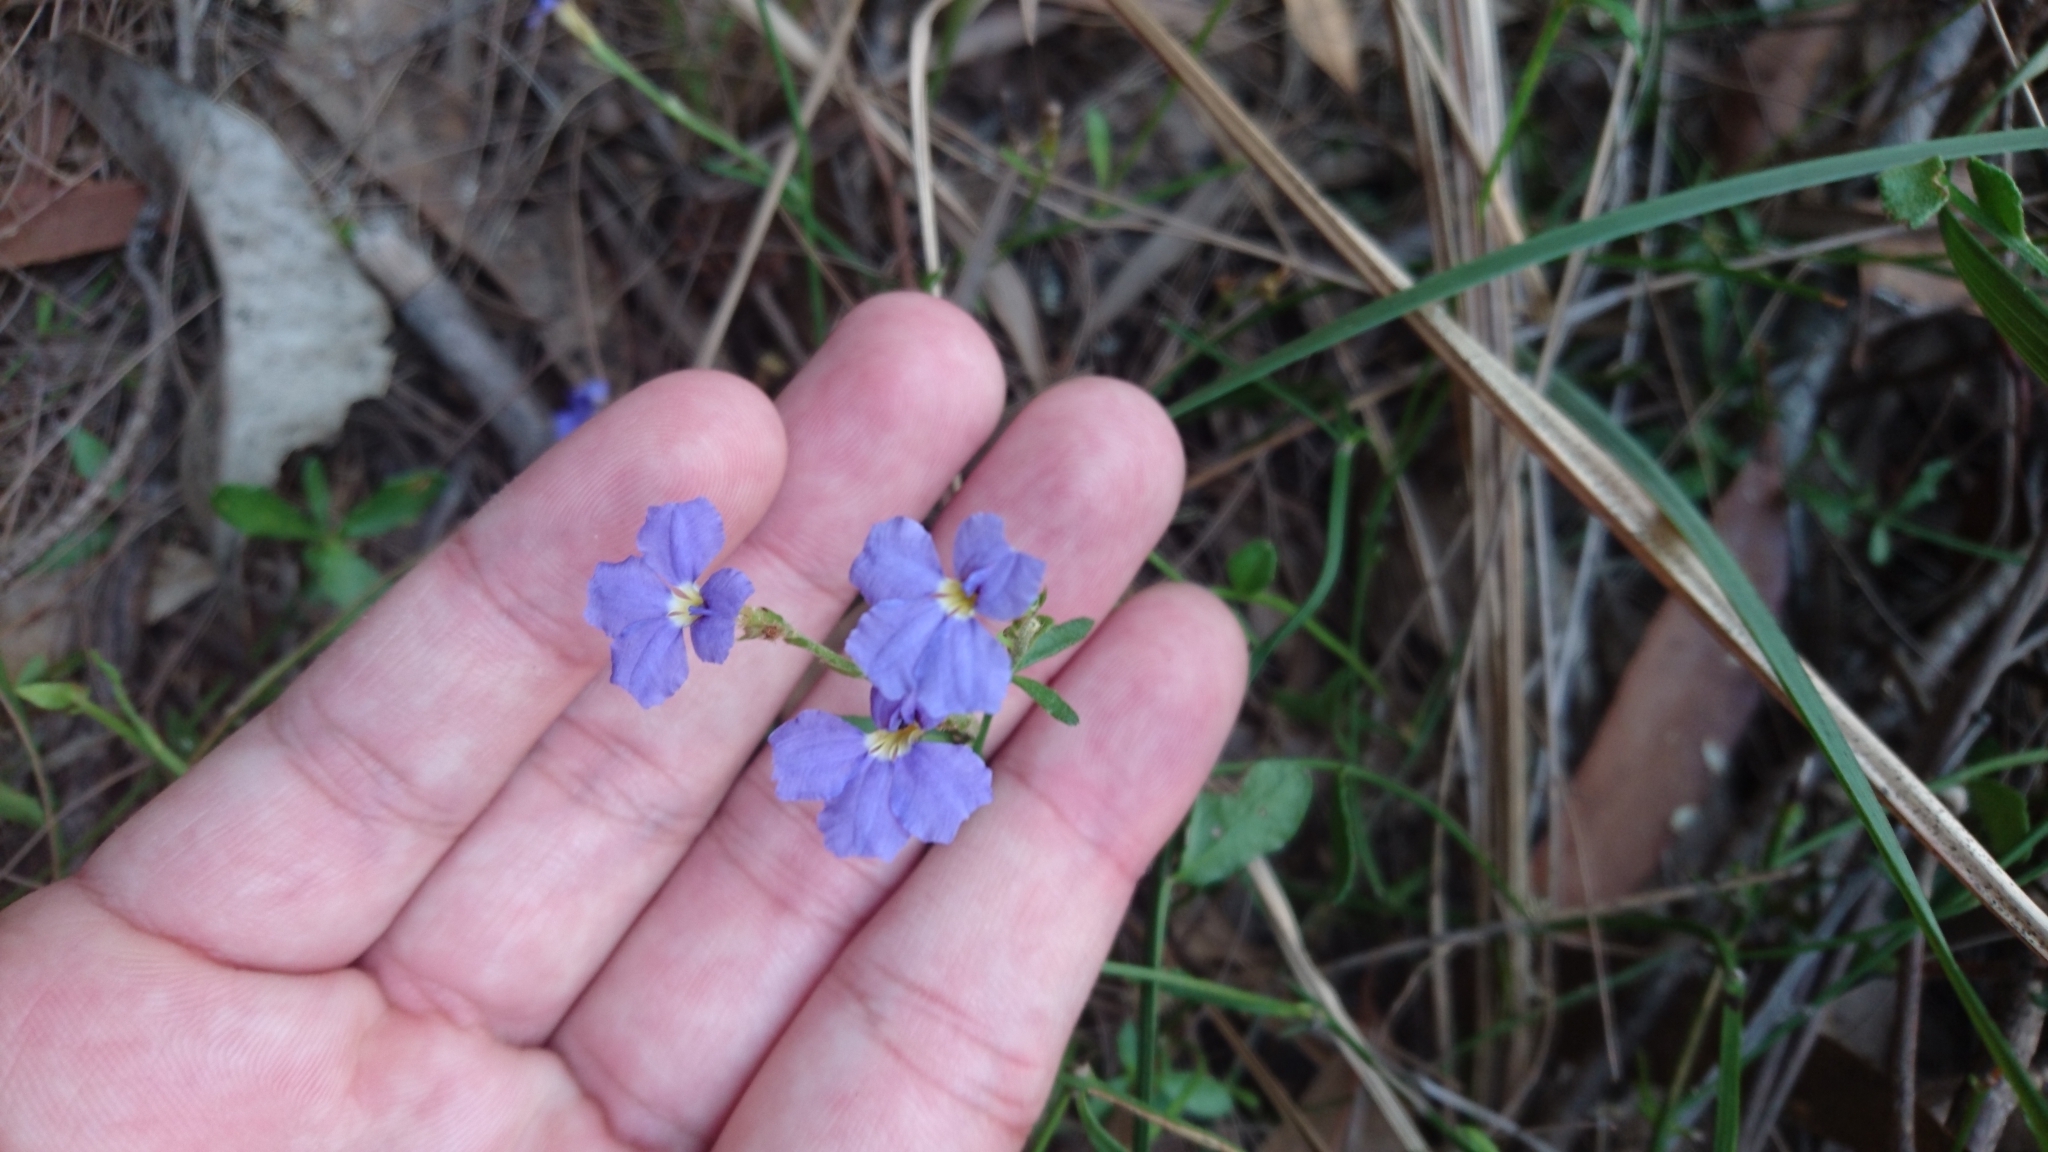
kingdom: Plantae
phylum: Tracheophyta
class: Magnoliopsida
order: Asterales
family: Goodeniaceae
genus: Dampiera
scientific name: Dampiera stricta
